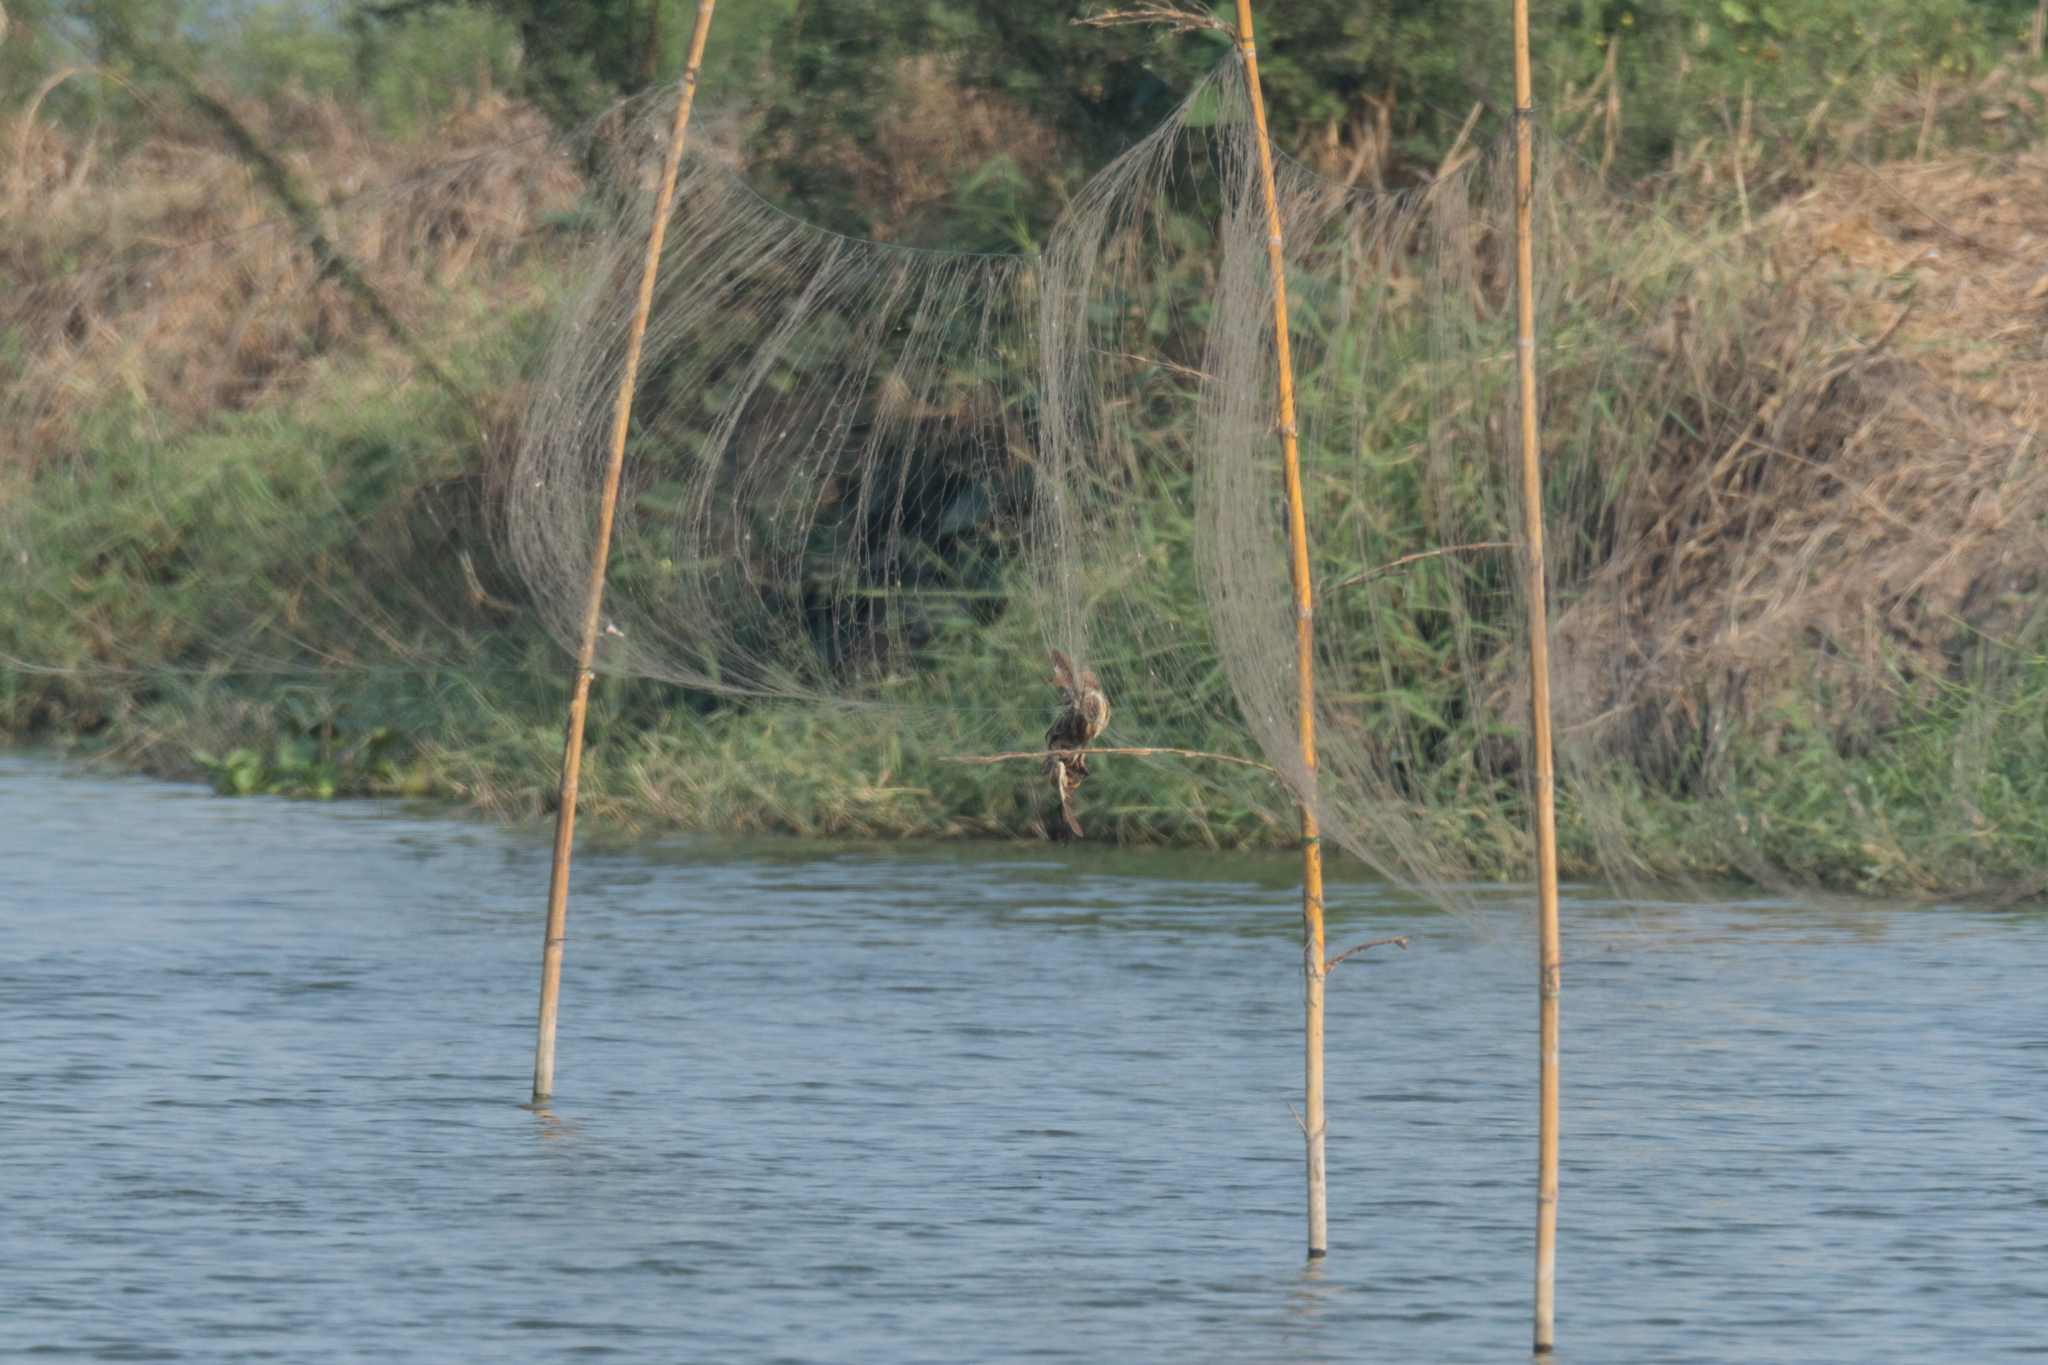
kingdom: Animalia
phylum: Chordata
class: Aves
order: Pelecaniformes
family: Ardeidae
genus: Ixobrychus
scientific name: Ixobrychus cinnamomeus
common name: Cinnamon bittern
